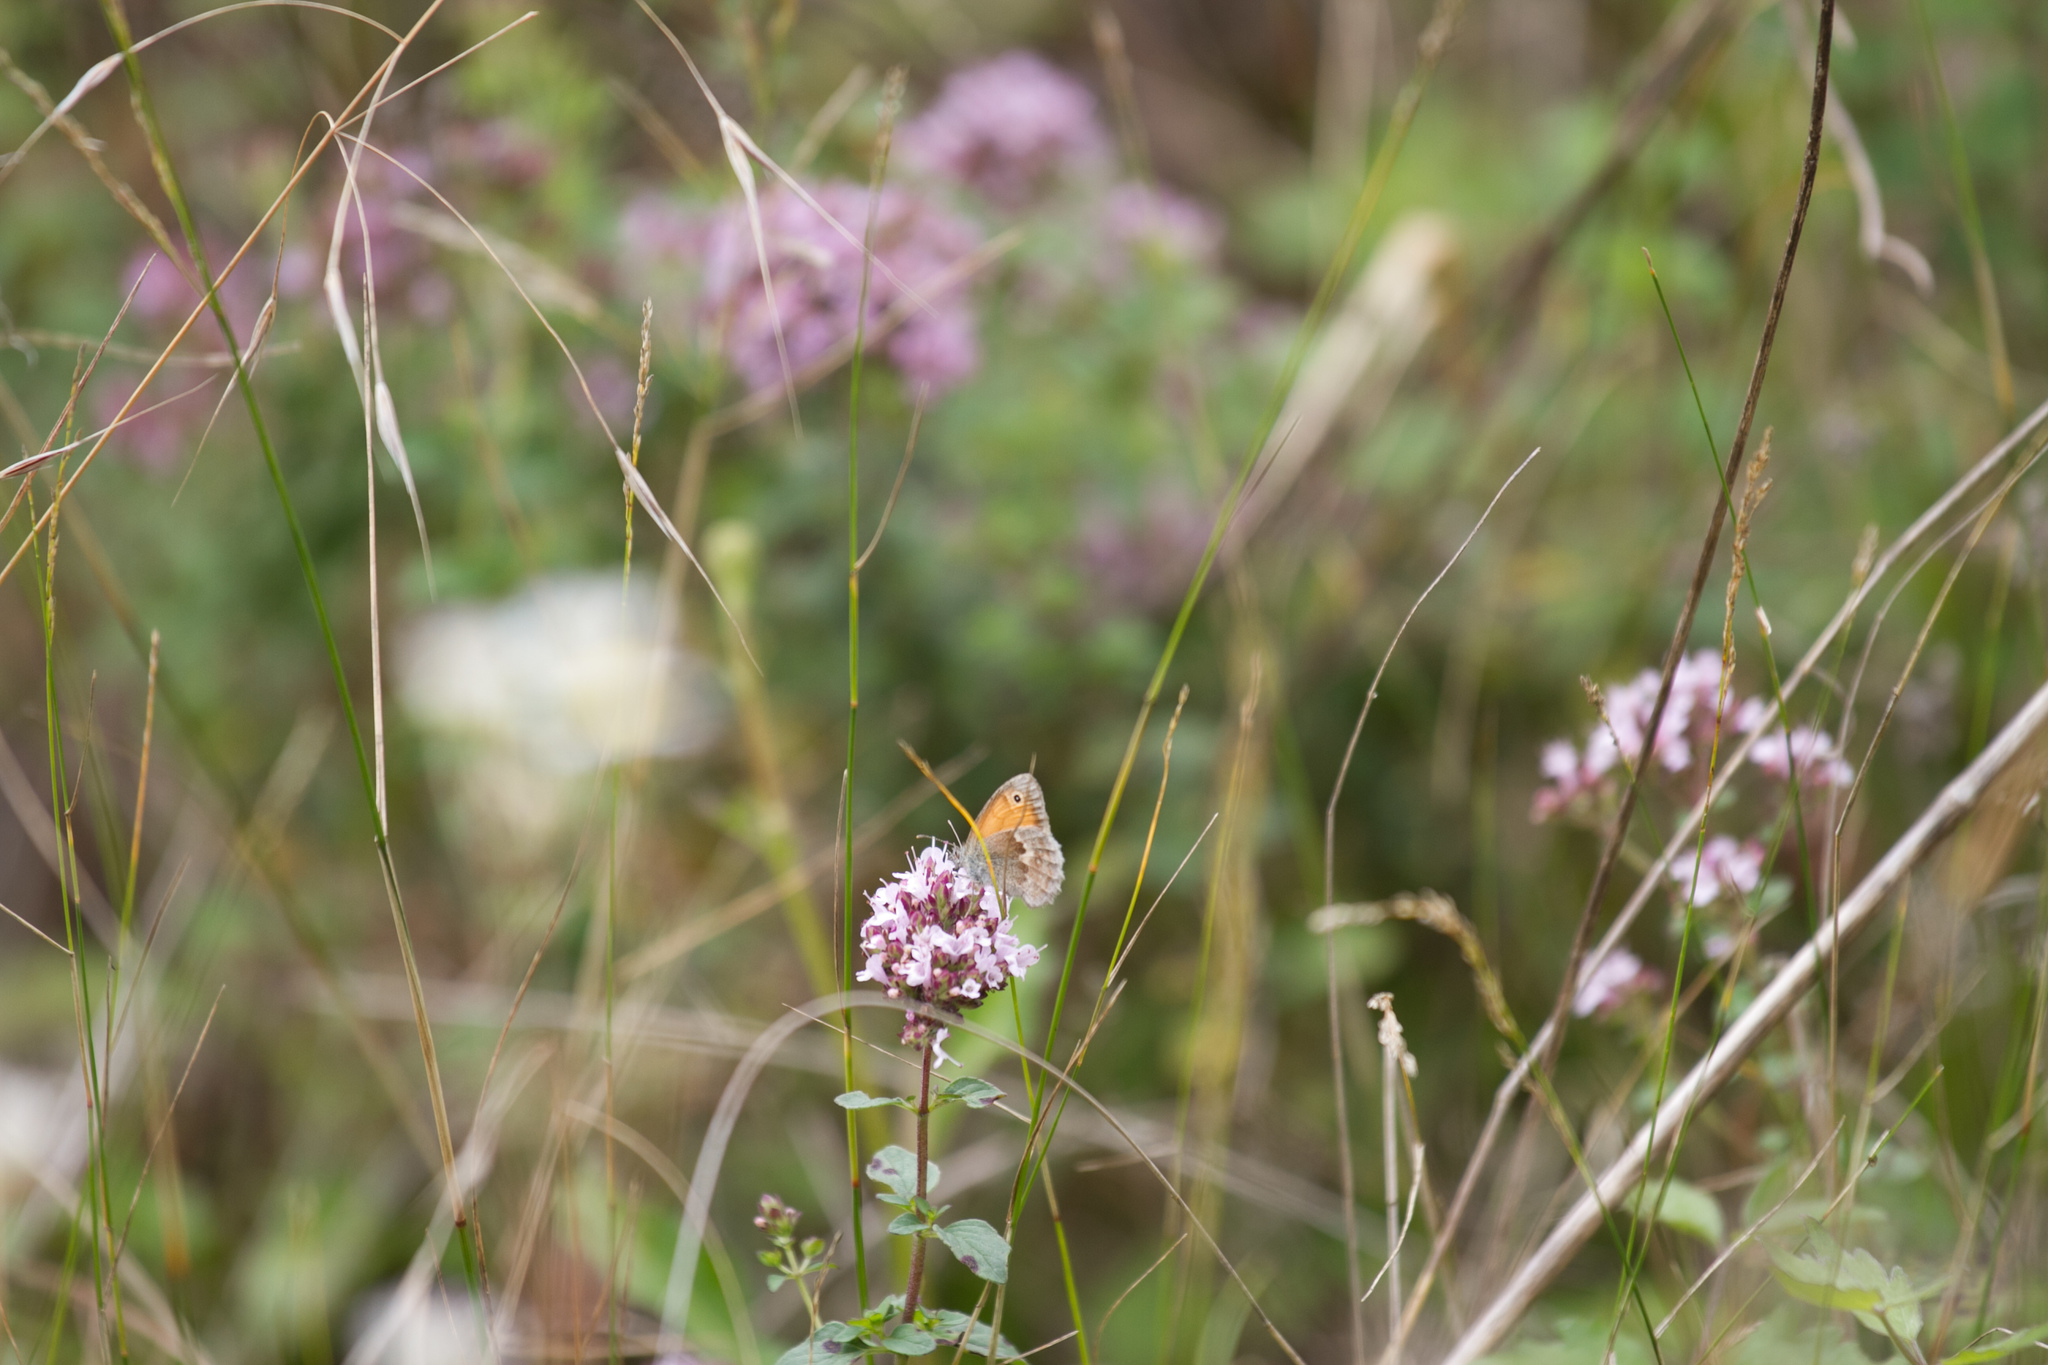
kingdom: Animalia
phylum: Arthropoda
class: Insecta
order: Lepidoptera
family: Nymphalidae
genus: Coenonympha
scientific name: Coenonympha pamphilus
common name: Small heath
